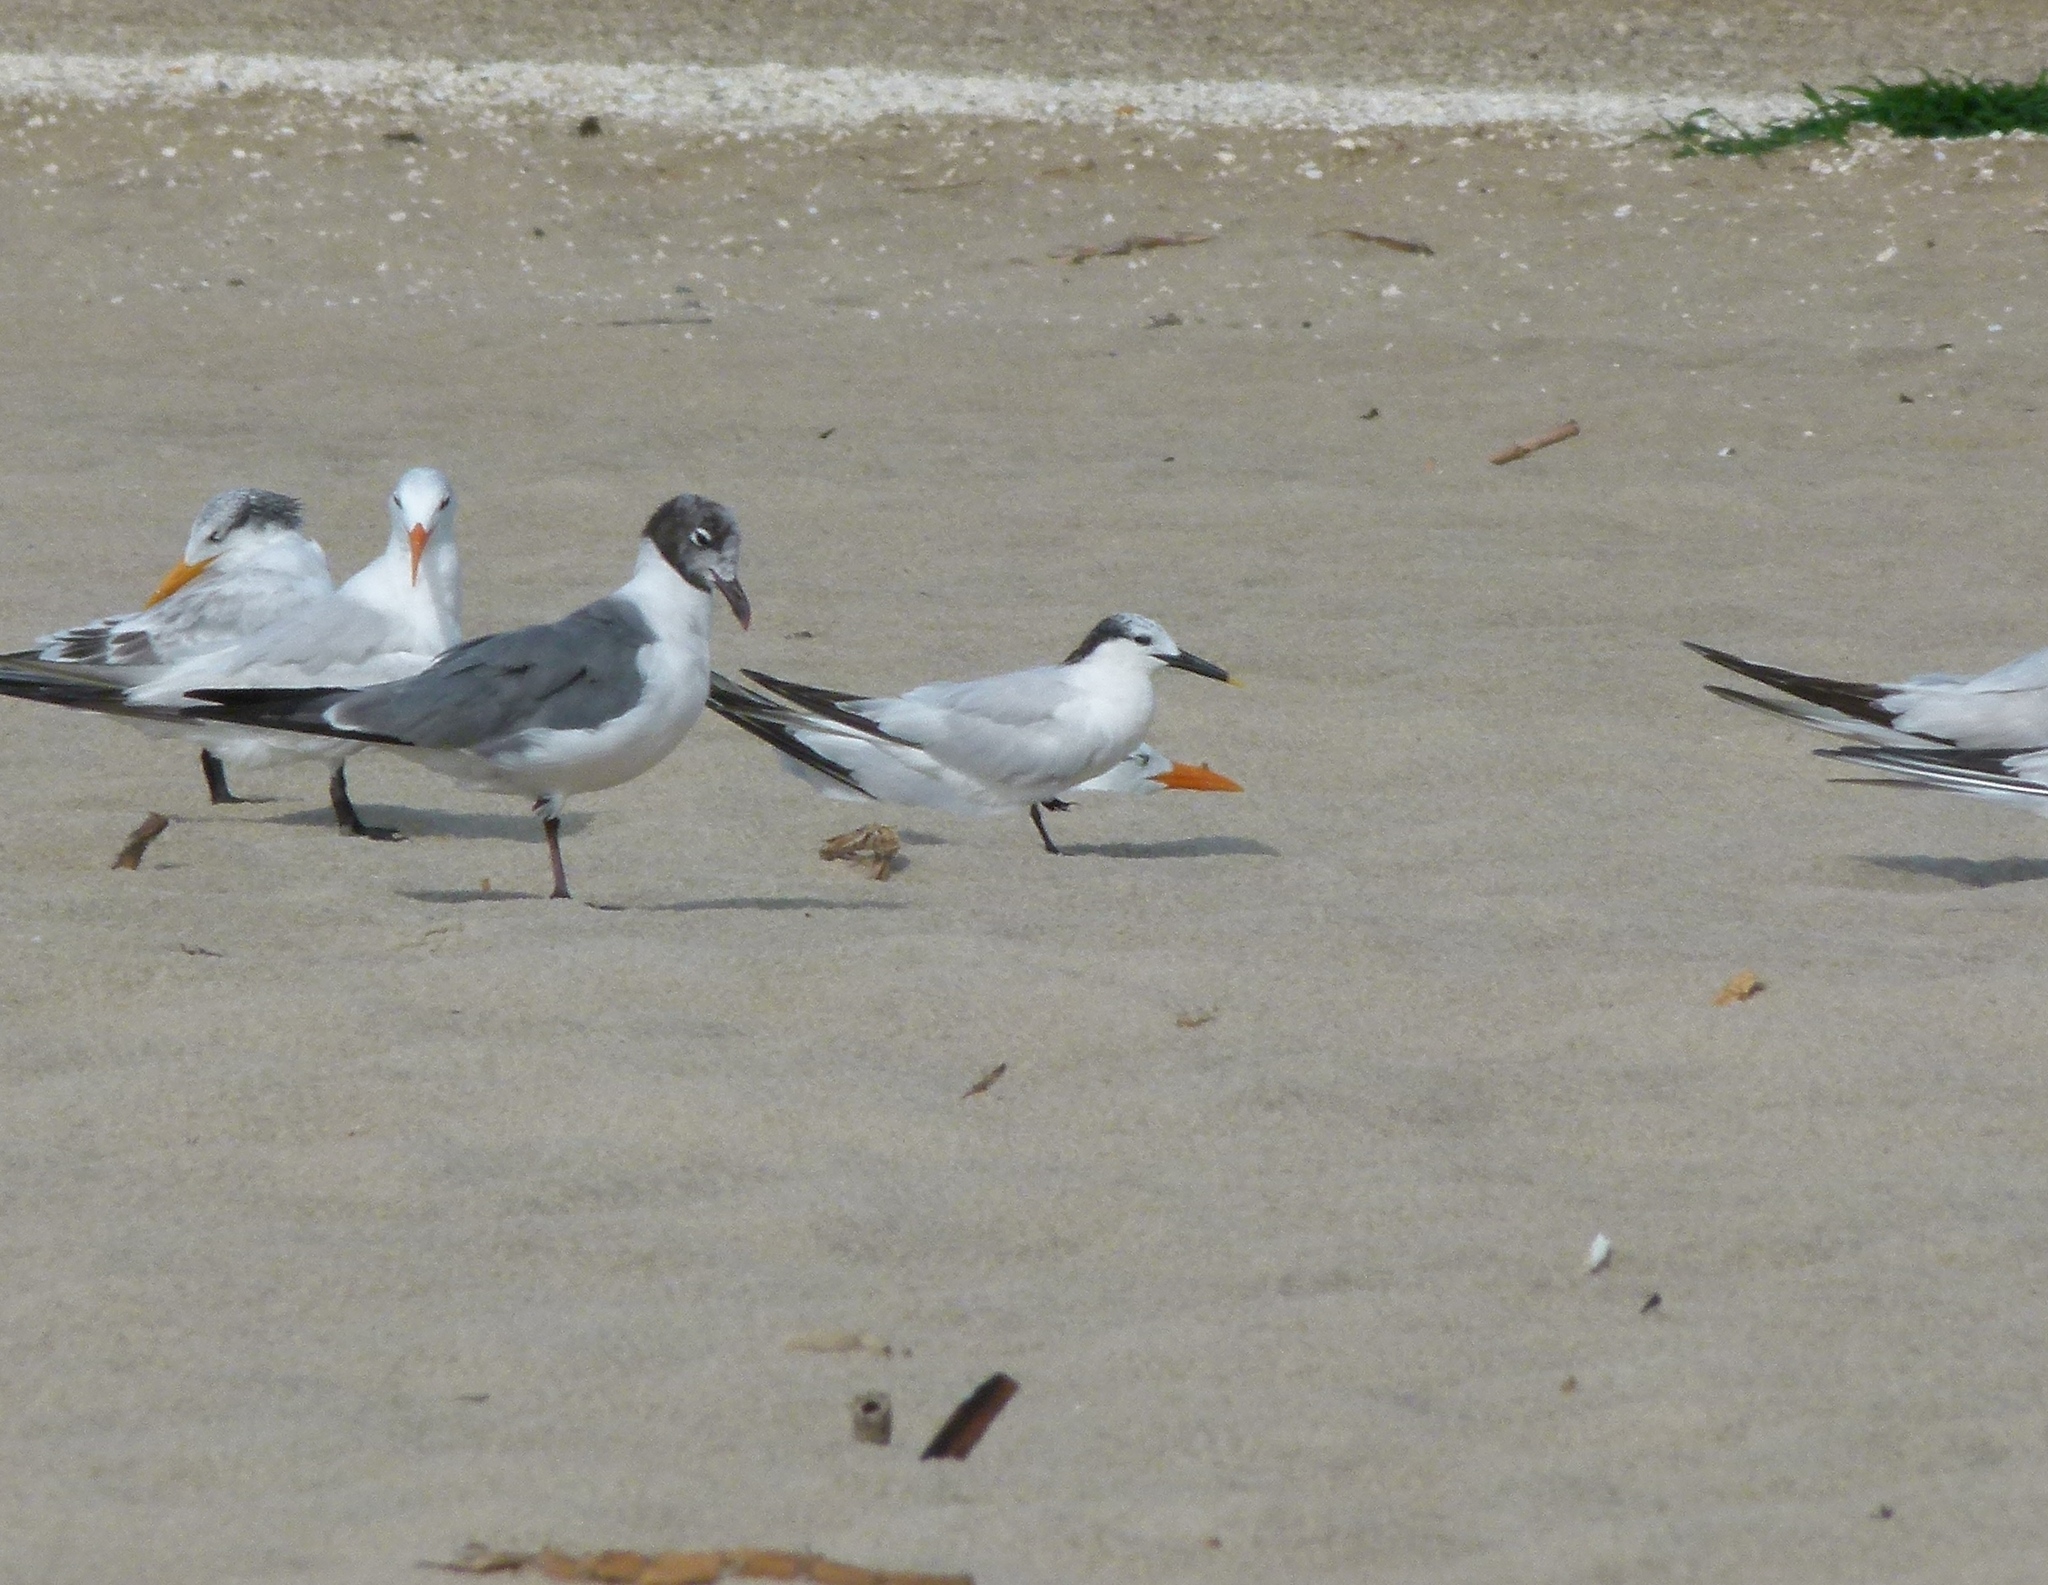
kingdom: Animalia
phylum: Chordata
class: Aves
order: Charadriiformes
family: Laridae
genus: Thalasseus
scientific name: Thalasseus sandvicensis
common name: Sandwich tern
